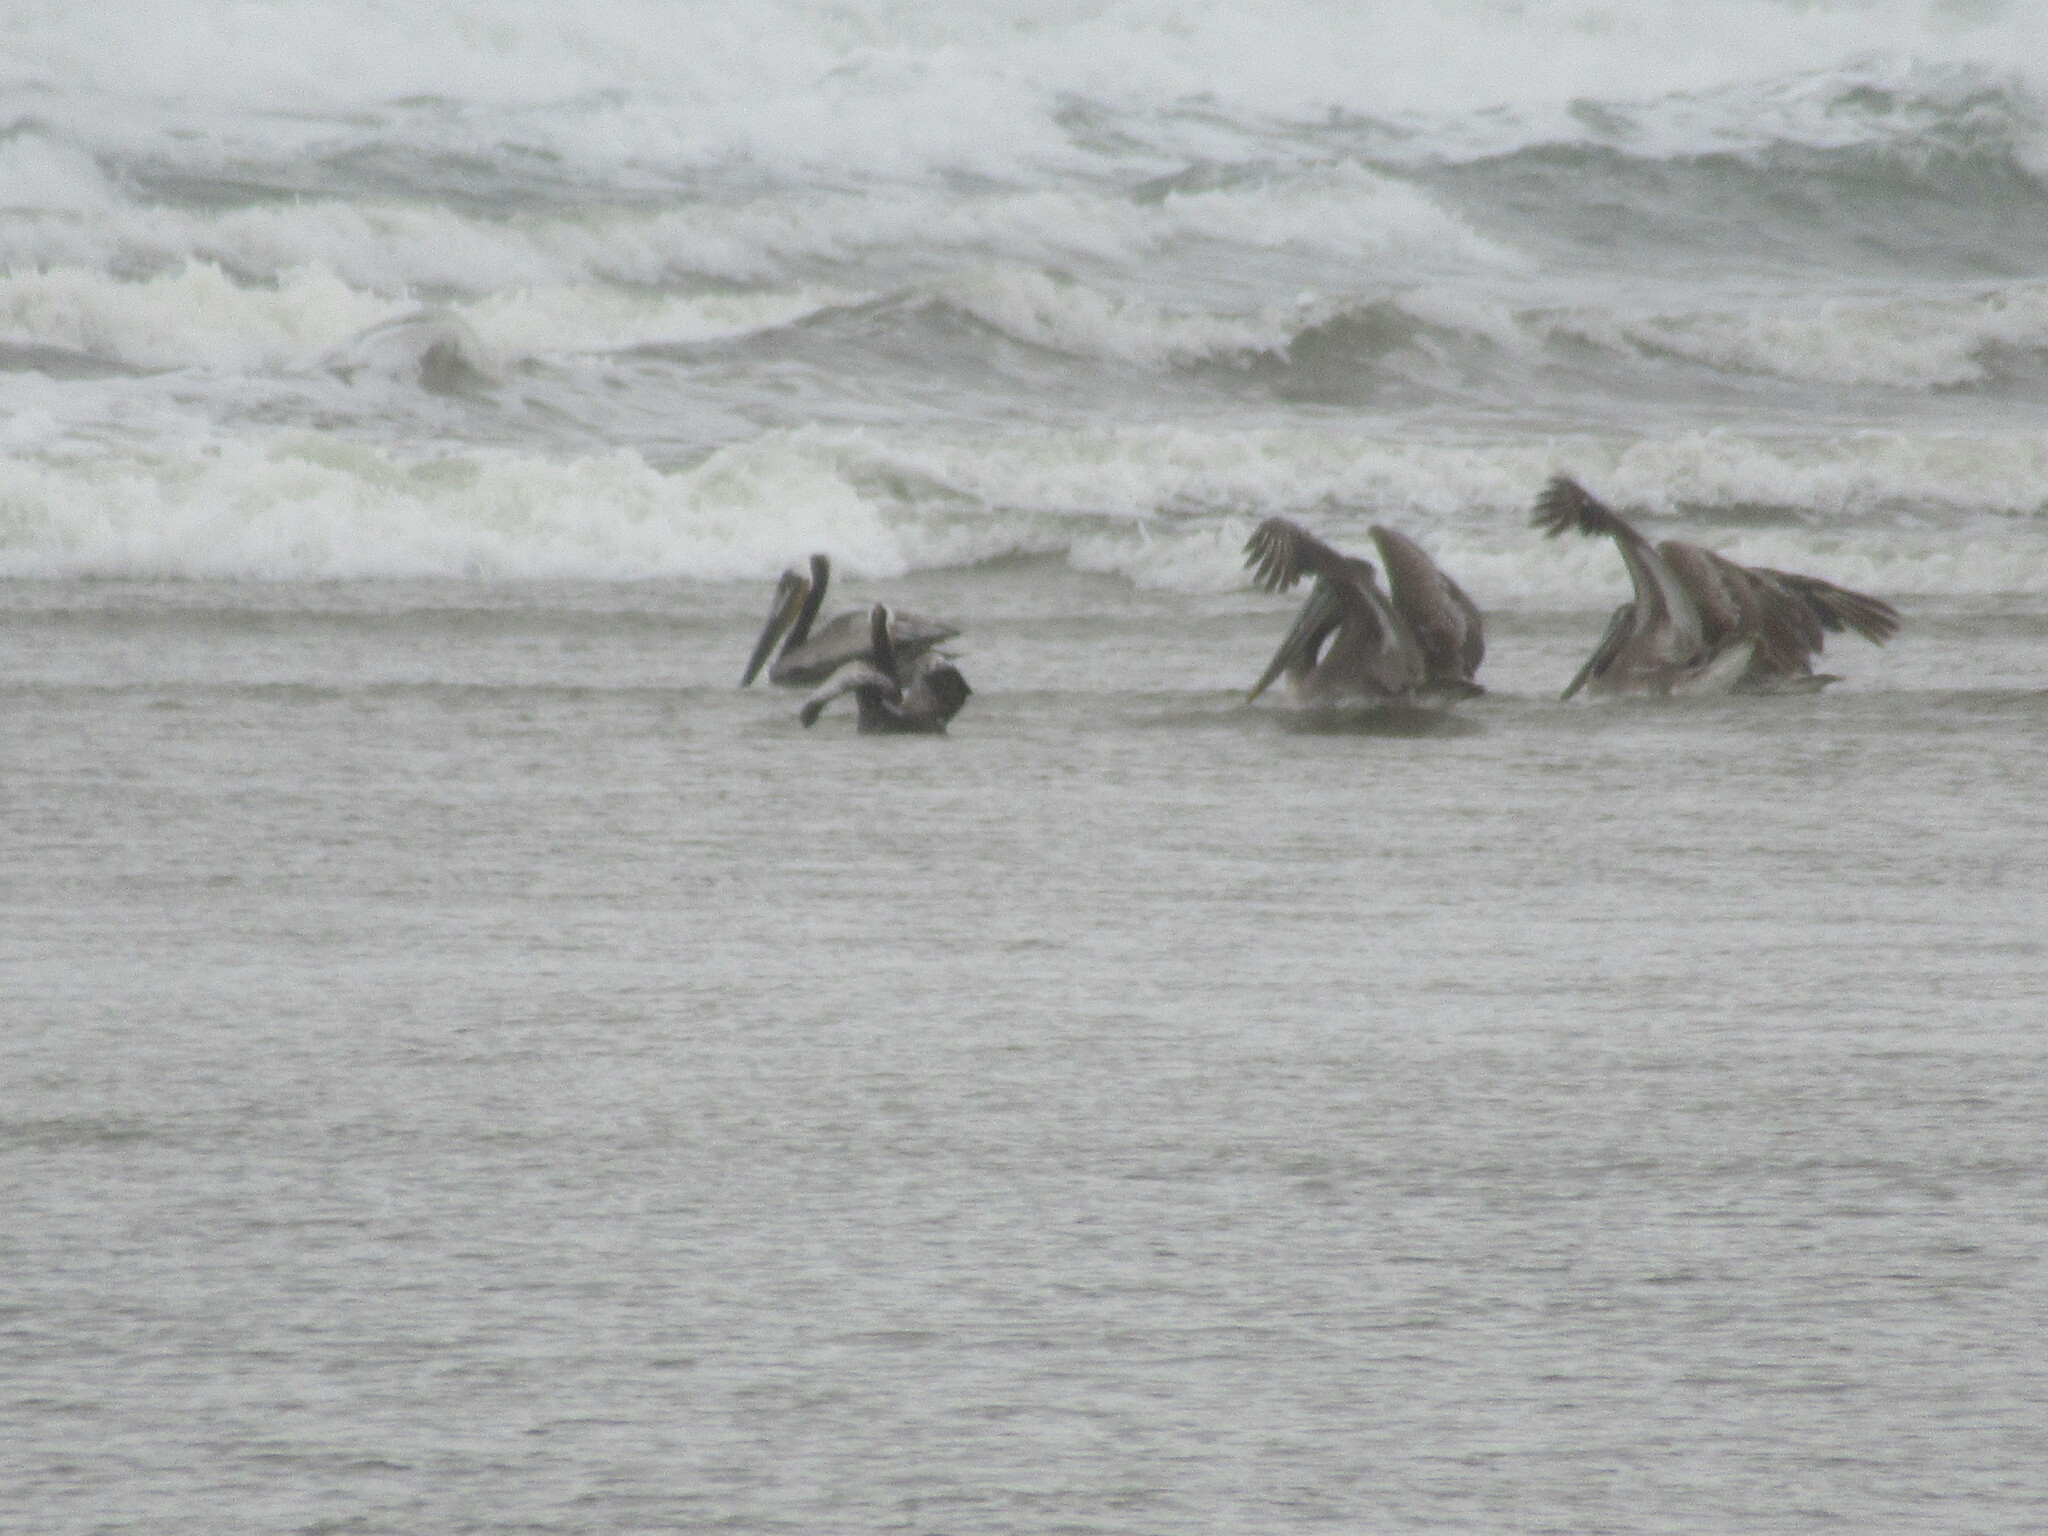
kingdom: Animalia
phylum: Chordata
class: Aves
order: Pelecaniformes
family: Pelecanidae
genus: Pelecanus
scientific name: Pelecanus occidentalis
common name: Brown pelican
